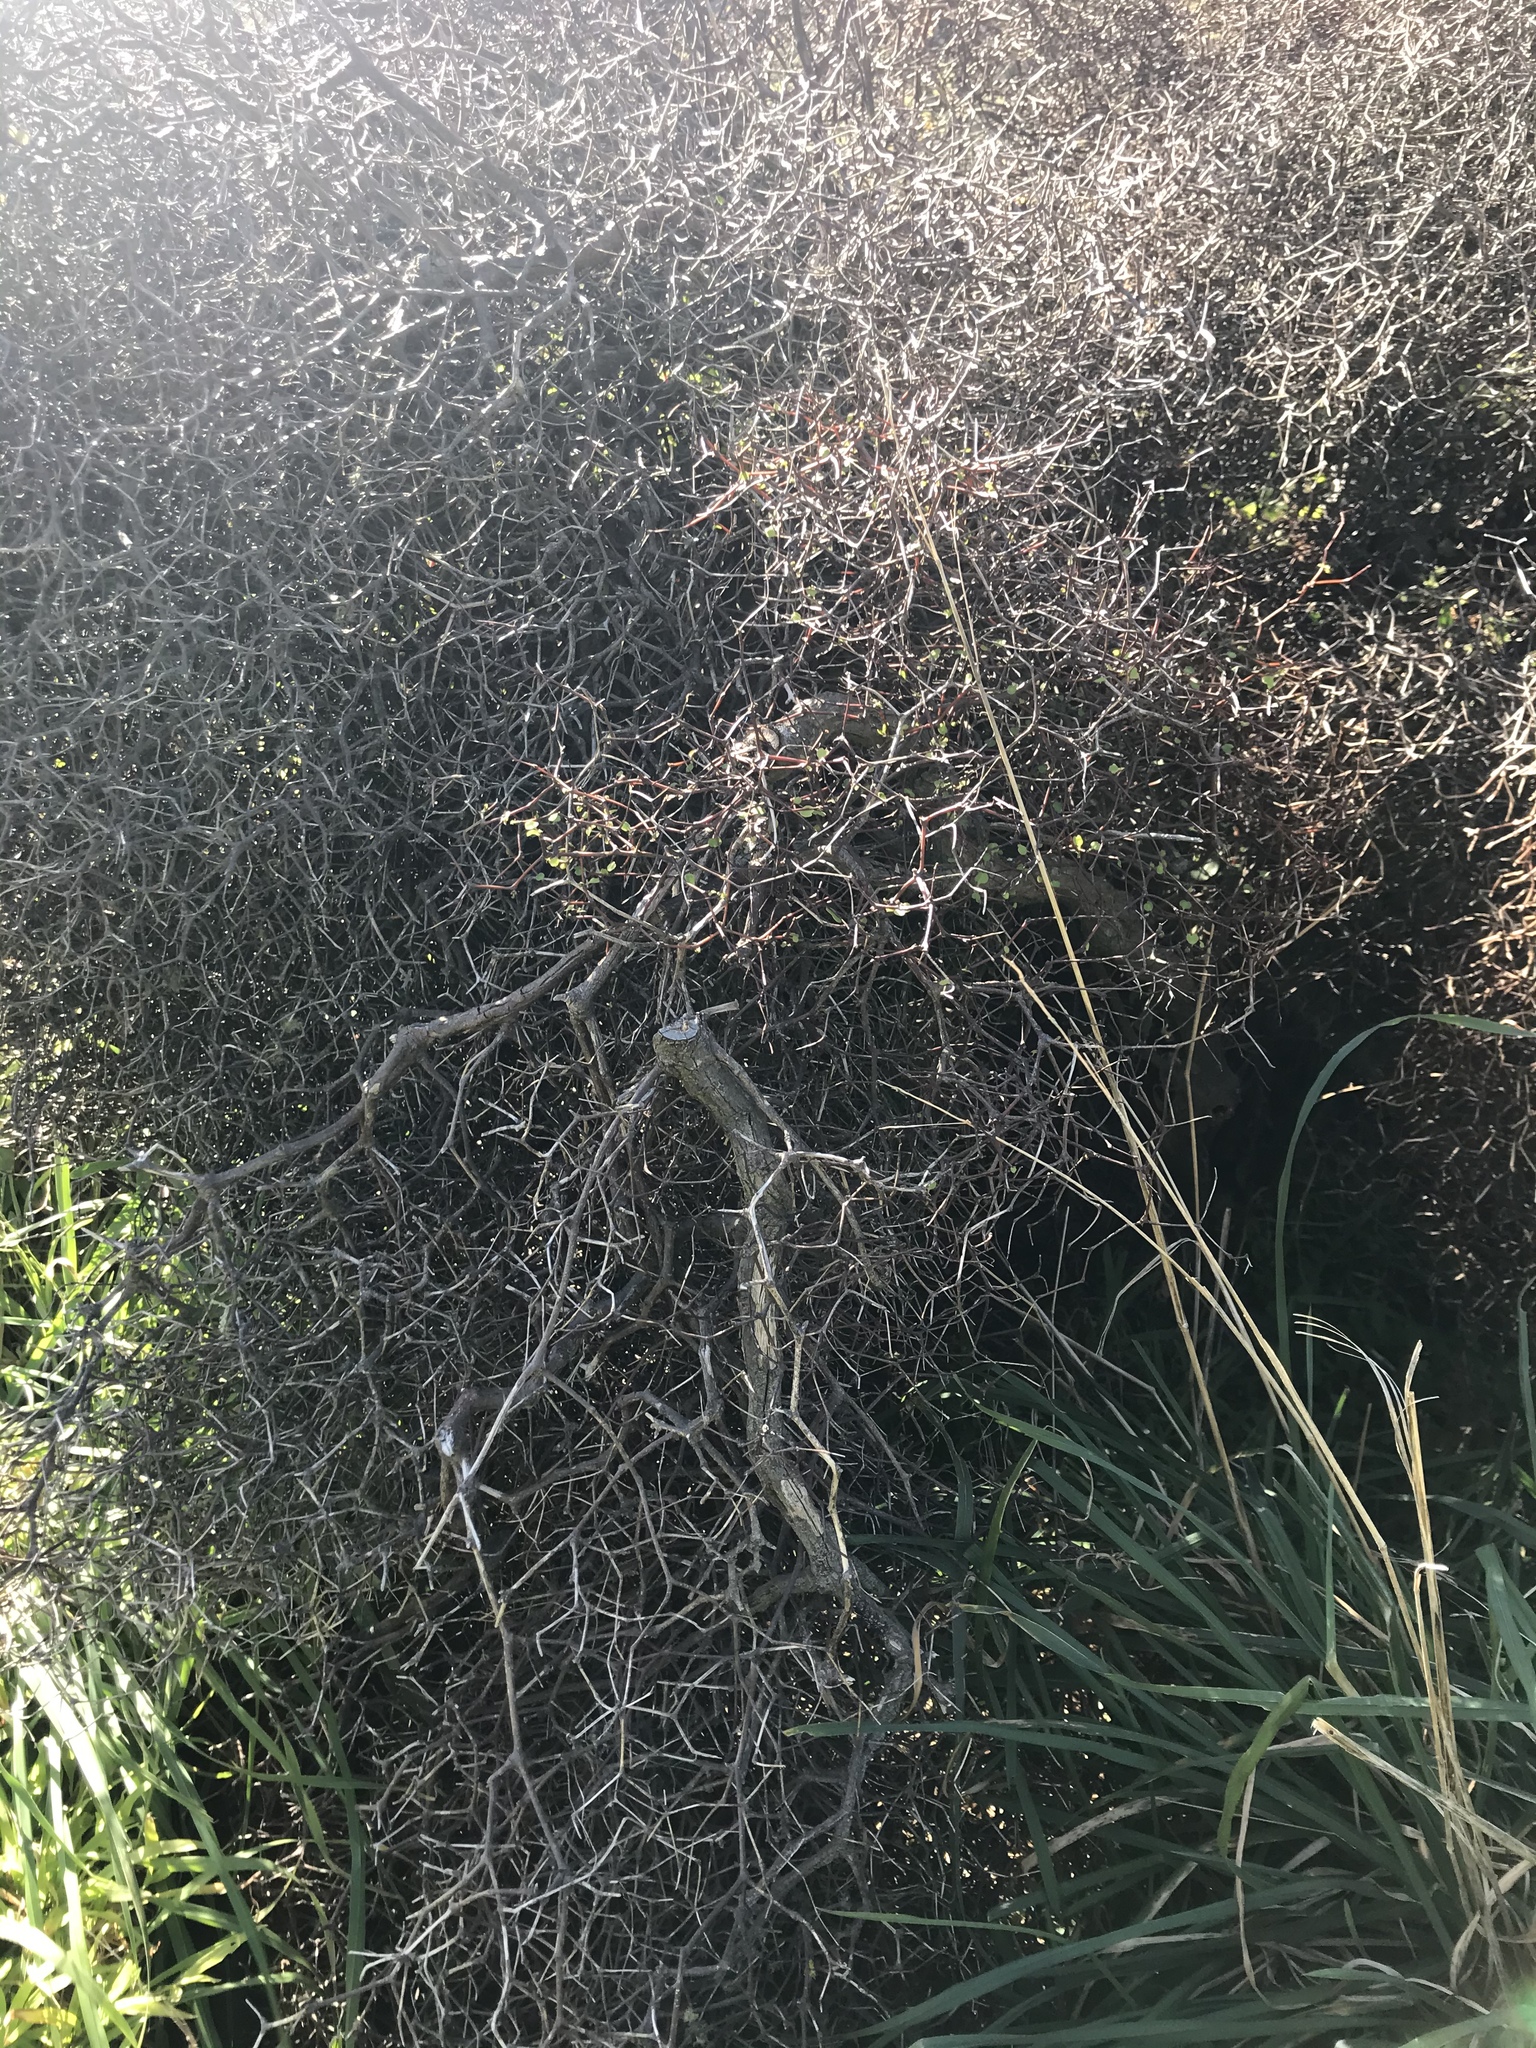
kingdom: Plantae
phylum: Tracheophyta
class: Magnoliopsida
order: Caryophyllales
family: Polygonaceae
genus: Muehlenbeckia
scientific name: Muehlenbeckia astonii
